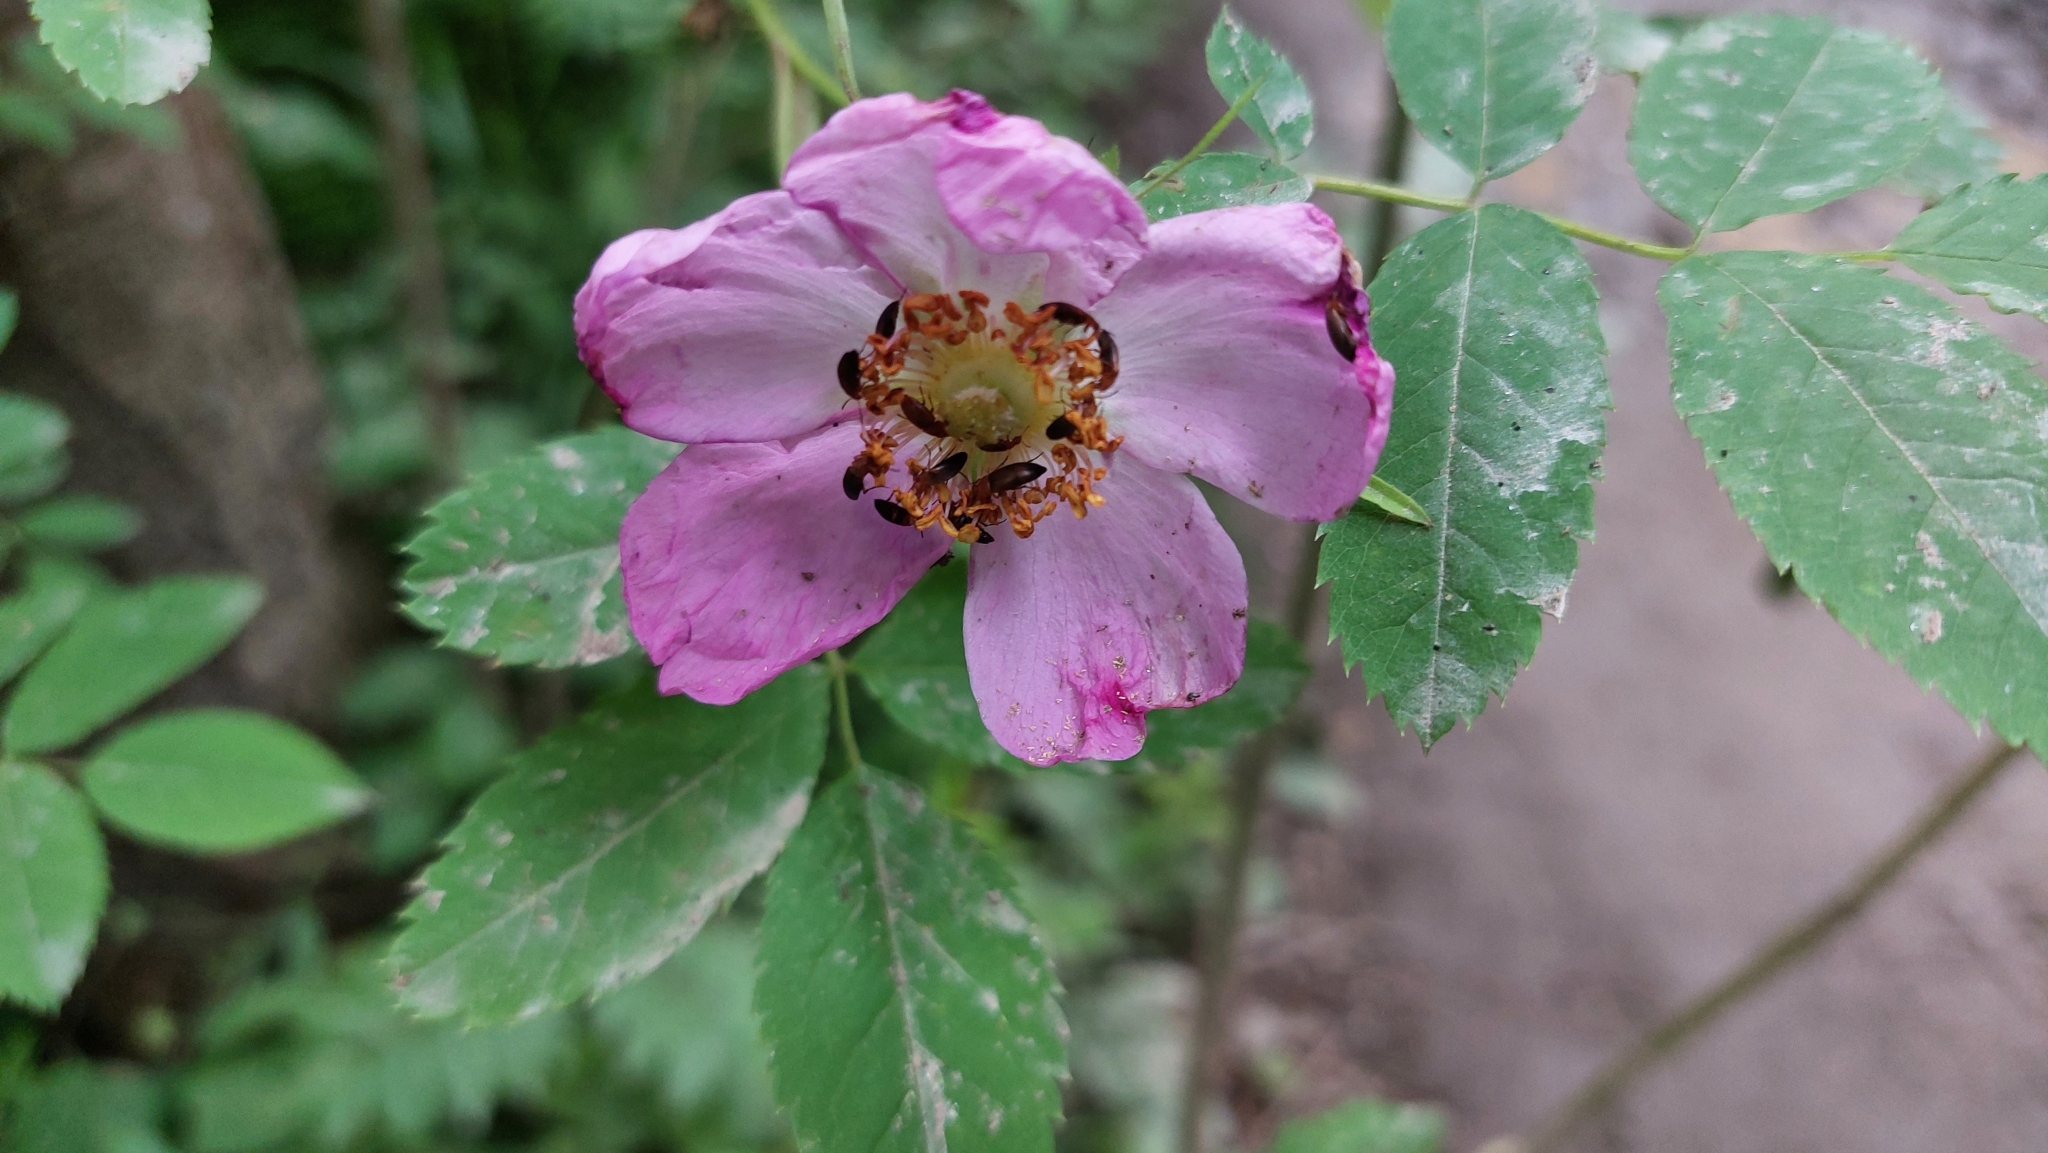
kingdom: Plantae
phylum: Tracheophyta
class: Magnoliopsida
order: Rosales
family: Rosaceae
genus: Rosa
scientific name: Rosa
